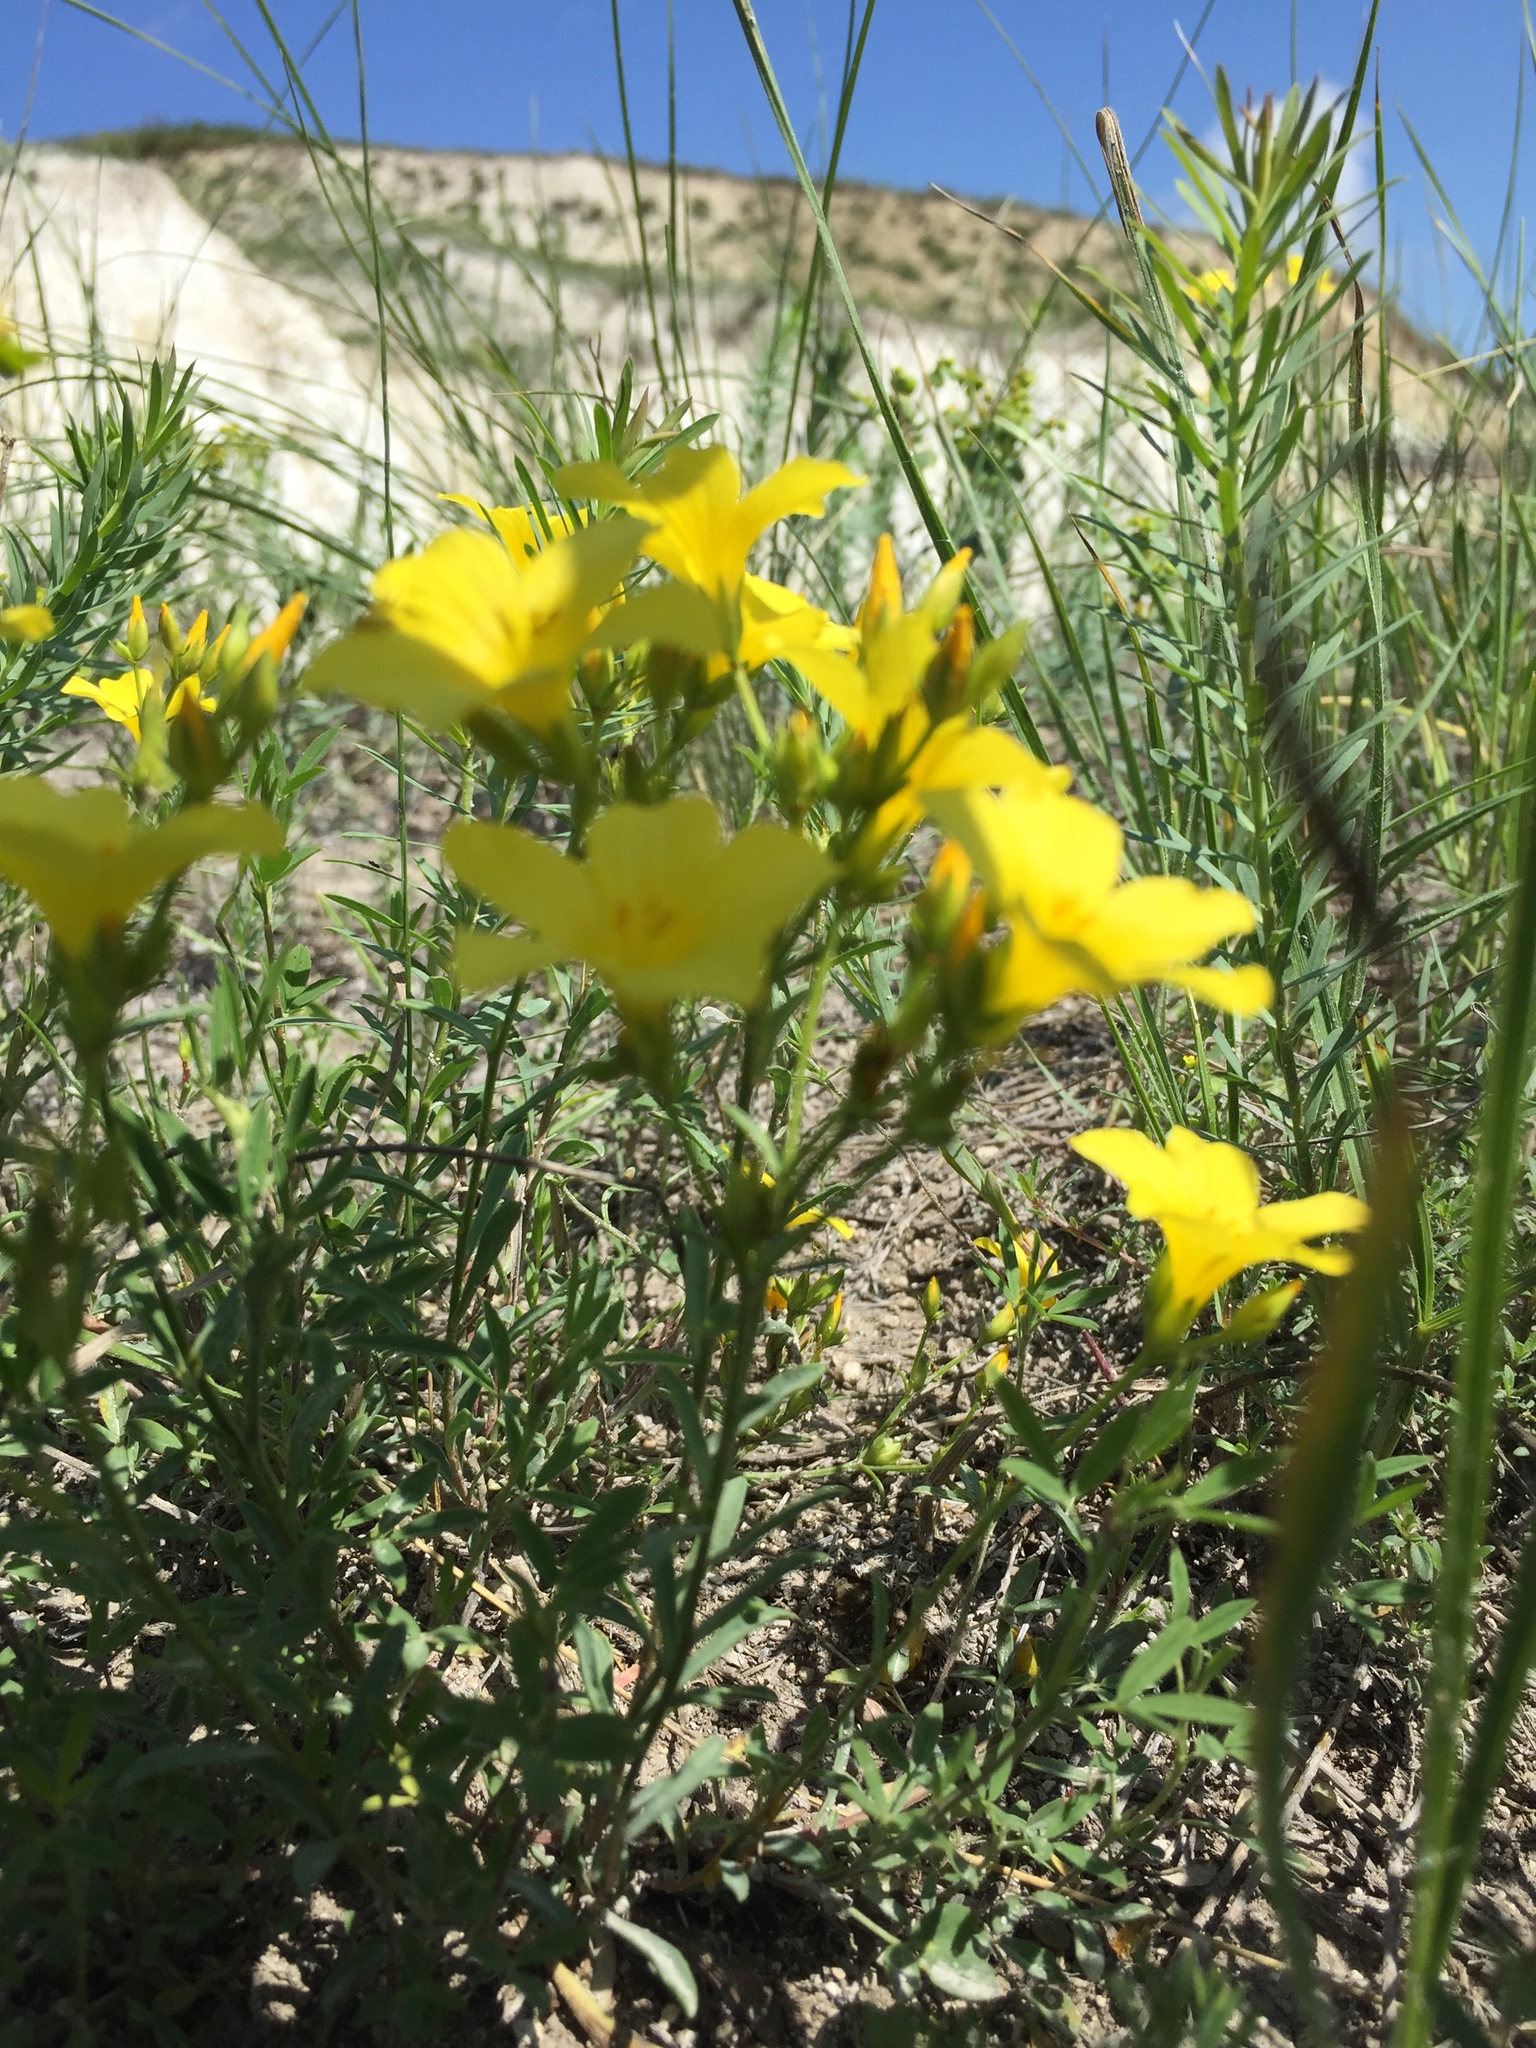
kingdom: Plantae
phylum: Tracheophyta
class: Magnoliopsida
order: Malpighiales
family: Linaceae
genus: Linum
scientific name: Linum ucranicum
